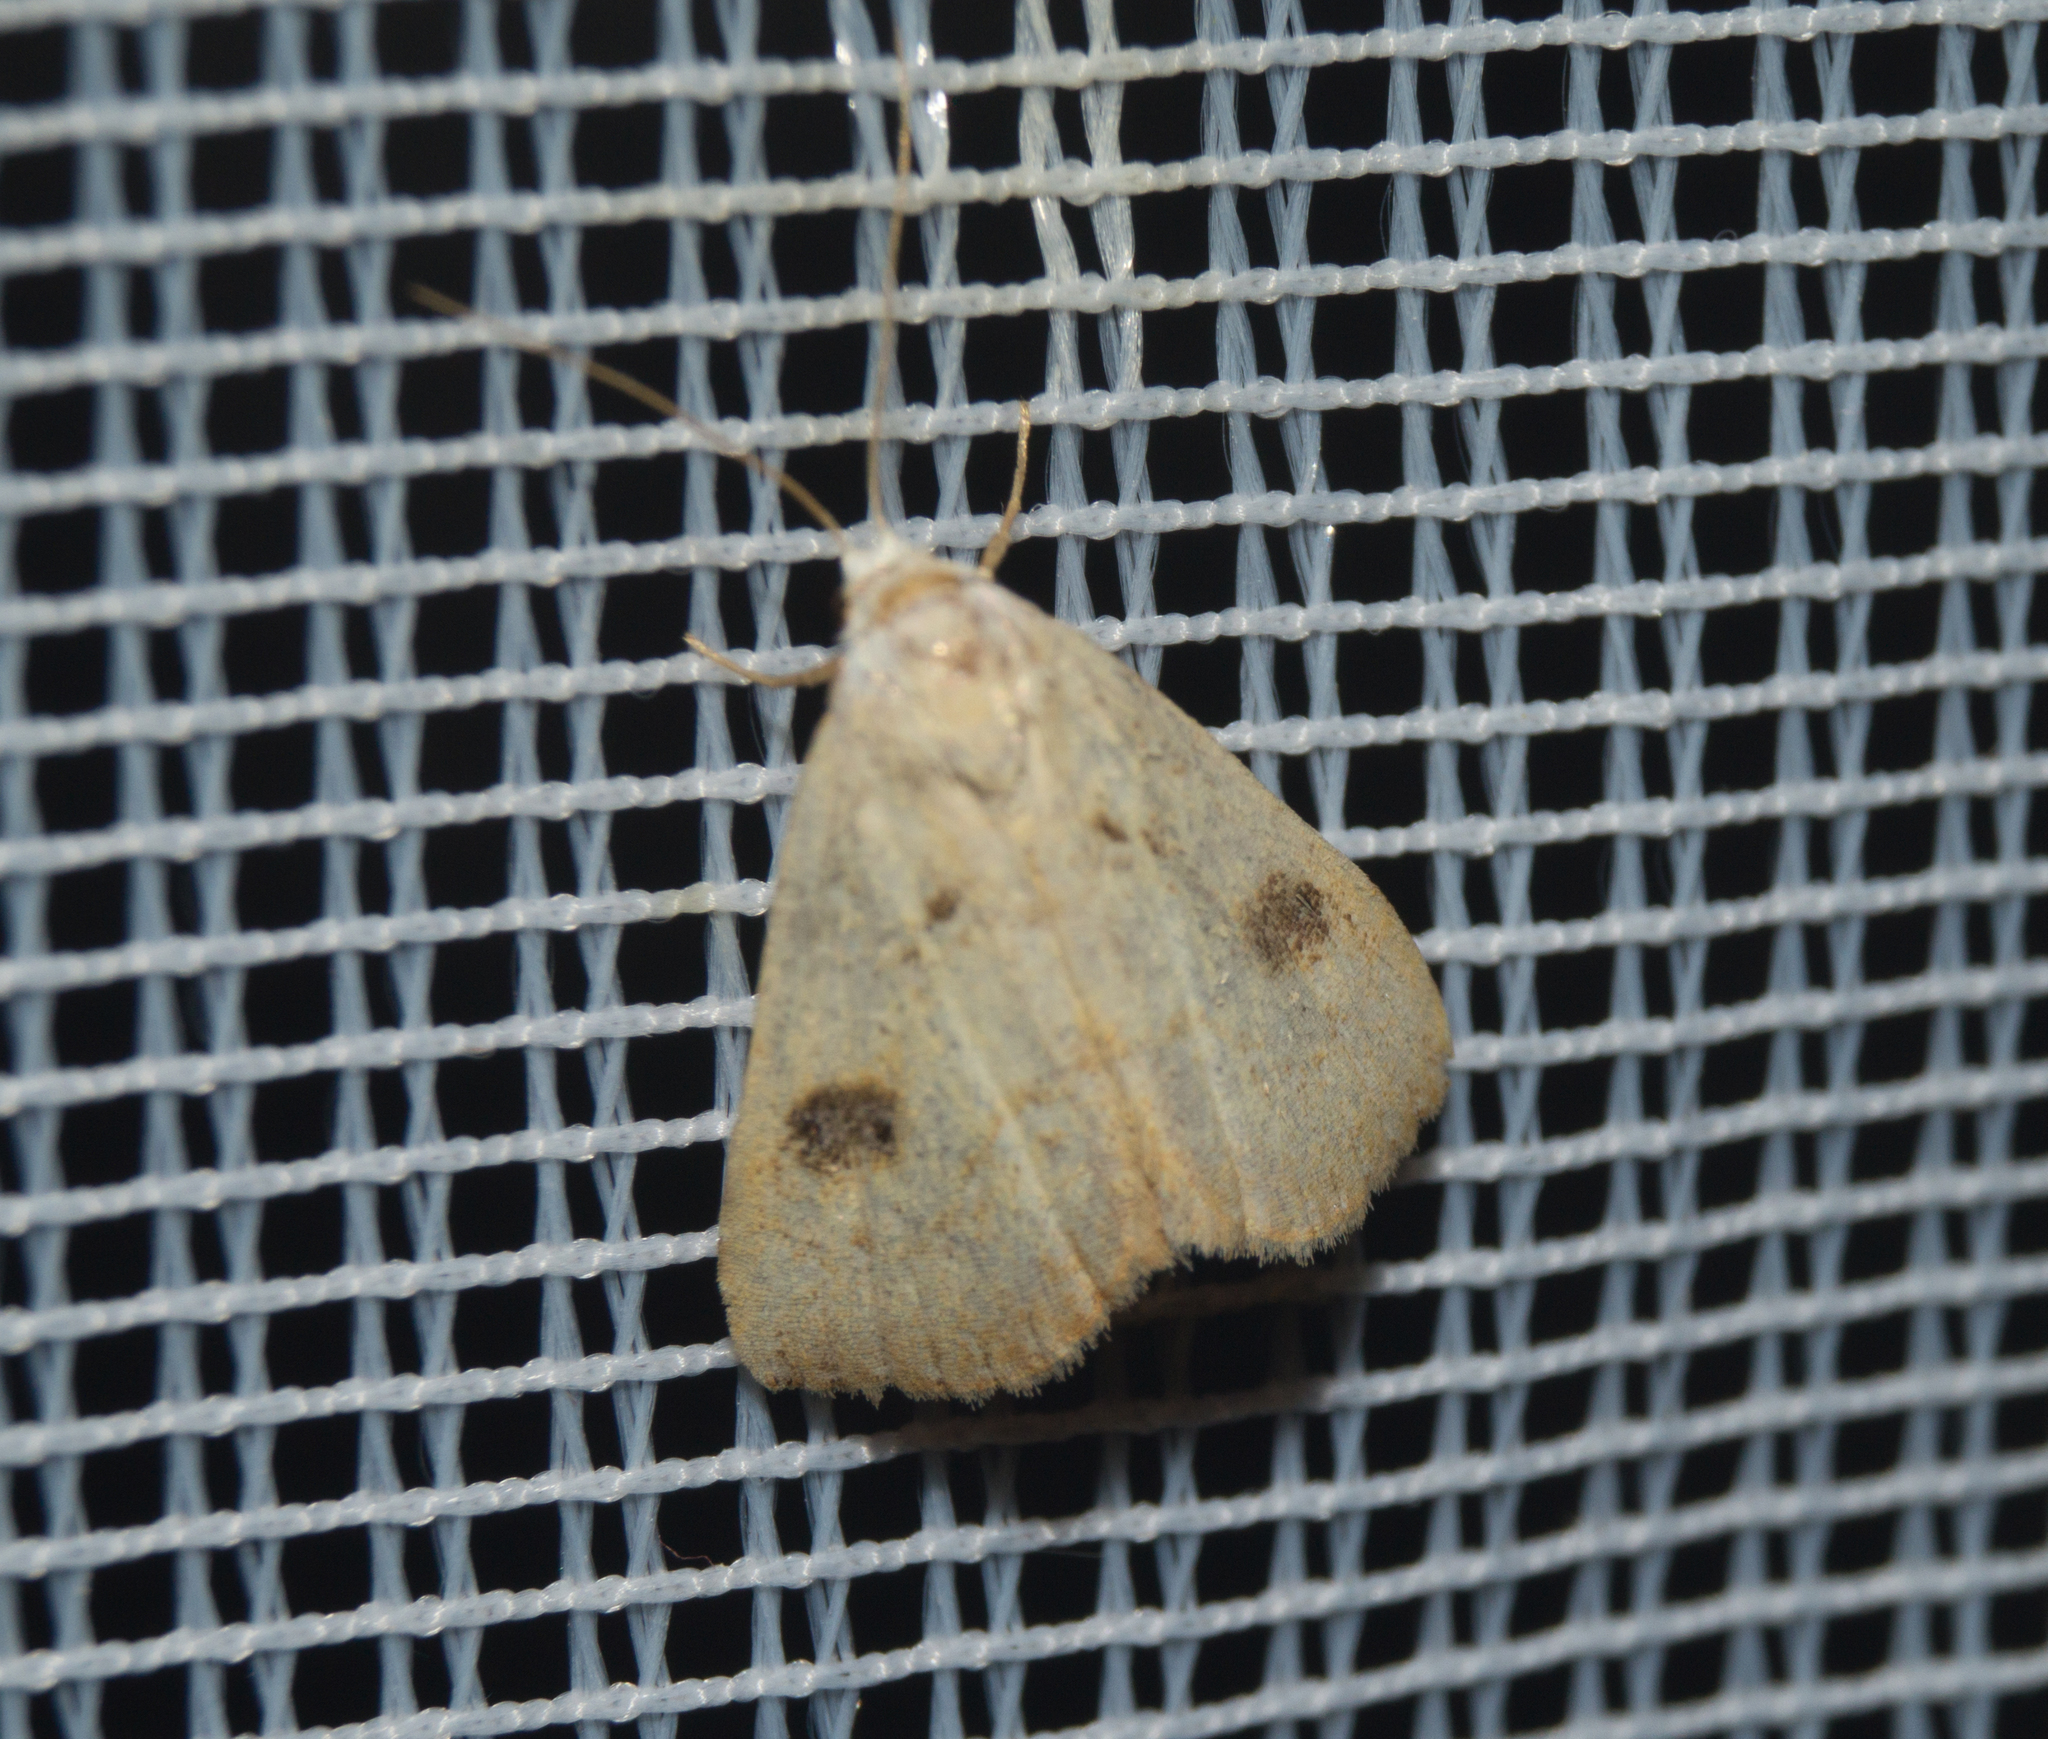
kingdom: Animalia
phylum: Arthropoda
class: Insecta
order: Lepidoptera
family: Erebidae
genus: Rivula
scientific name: Rivula sericealis
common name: Straw dot
